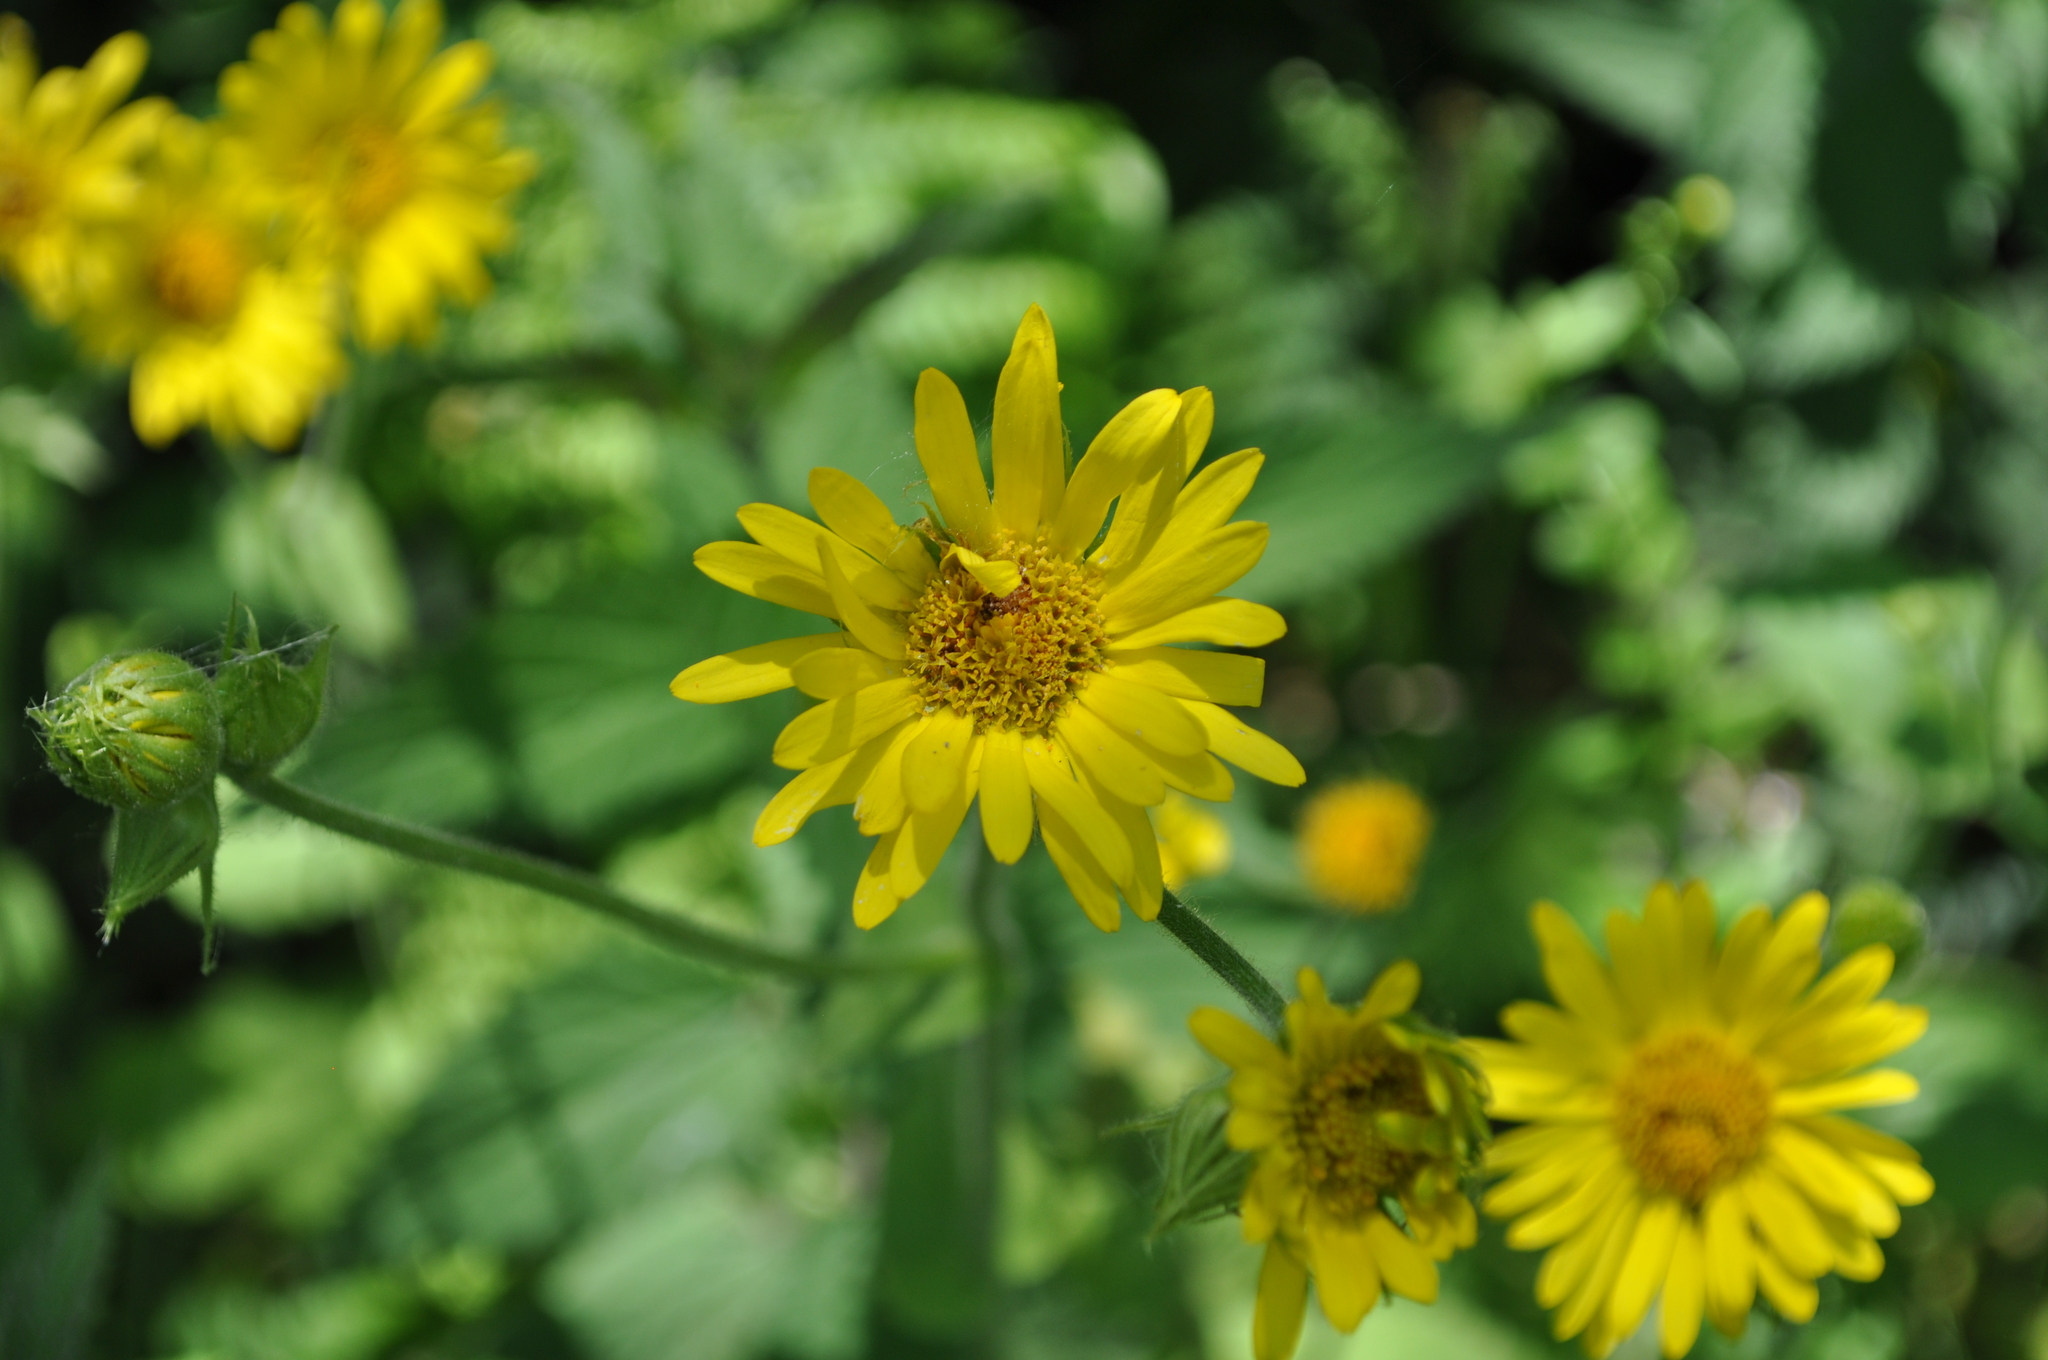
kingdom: Plantae
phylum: Tracheophyta
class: Magnoliopsida
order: Asterales
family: Asteraceae
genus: Doronicum
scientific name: Doronicum pardalianches
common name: Leopard's-bane
